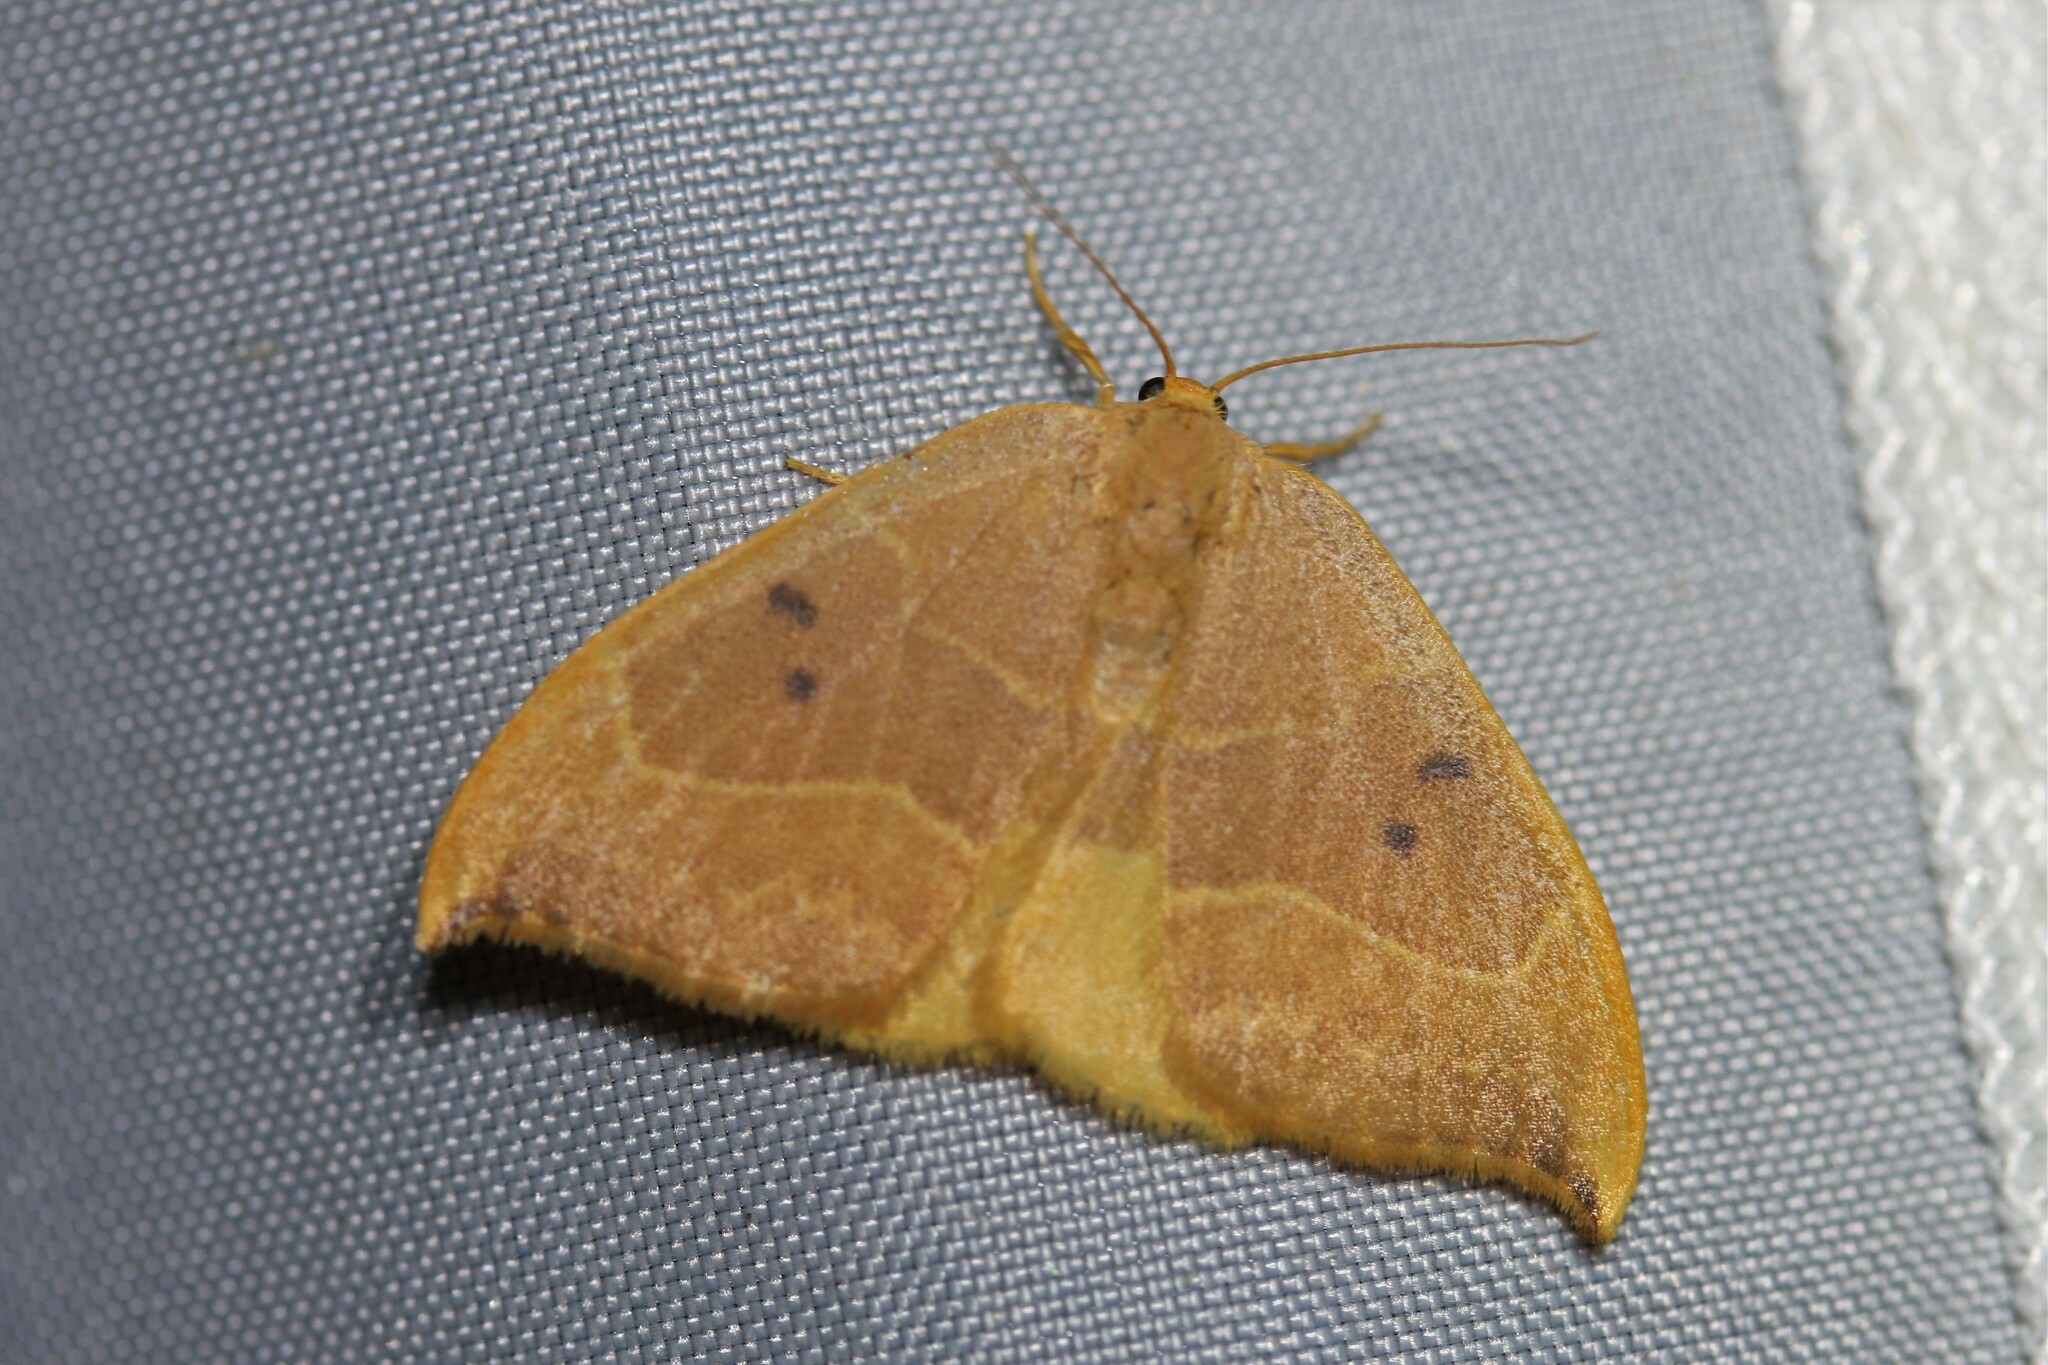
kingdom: Animalia
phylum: Arthropoda
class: Insecta
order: Lepidoptera
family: Drepanidae
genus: Watsonalla
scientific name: Watsonalla binaria
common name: Oak hook-tip
